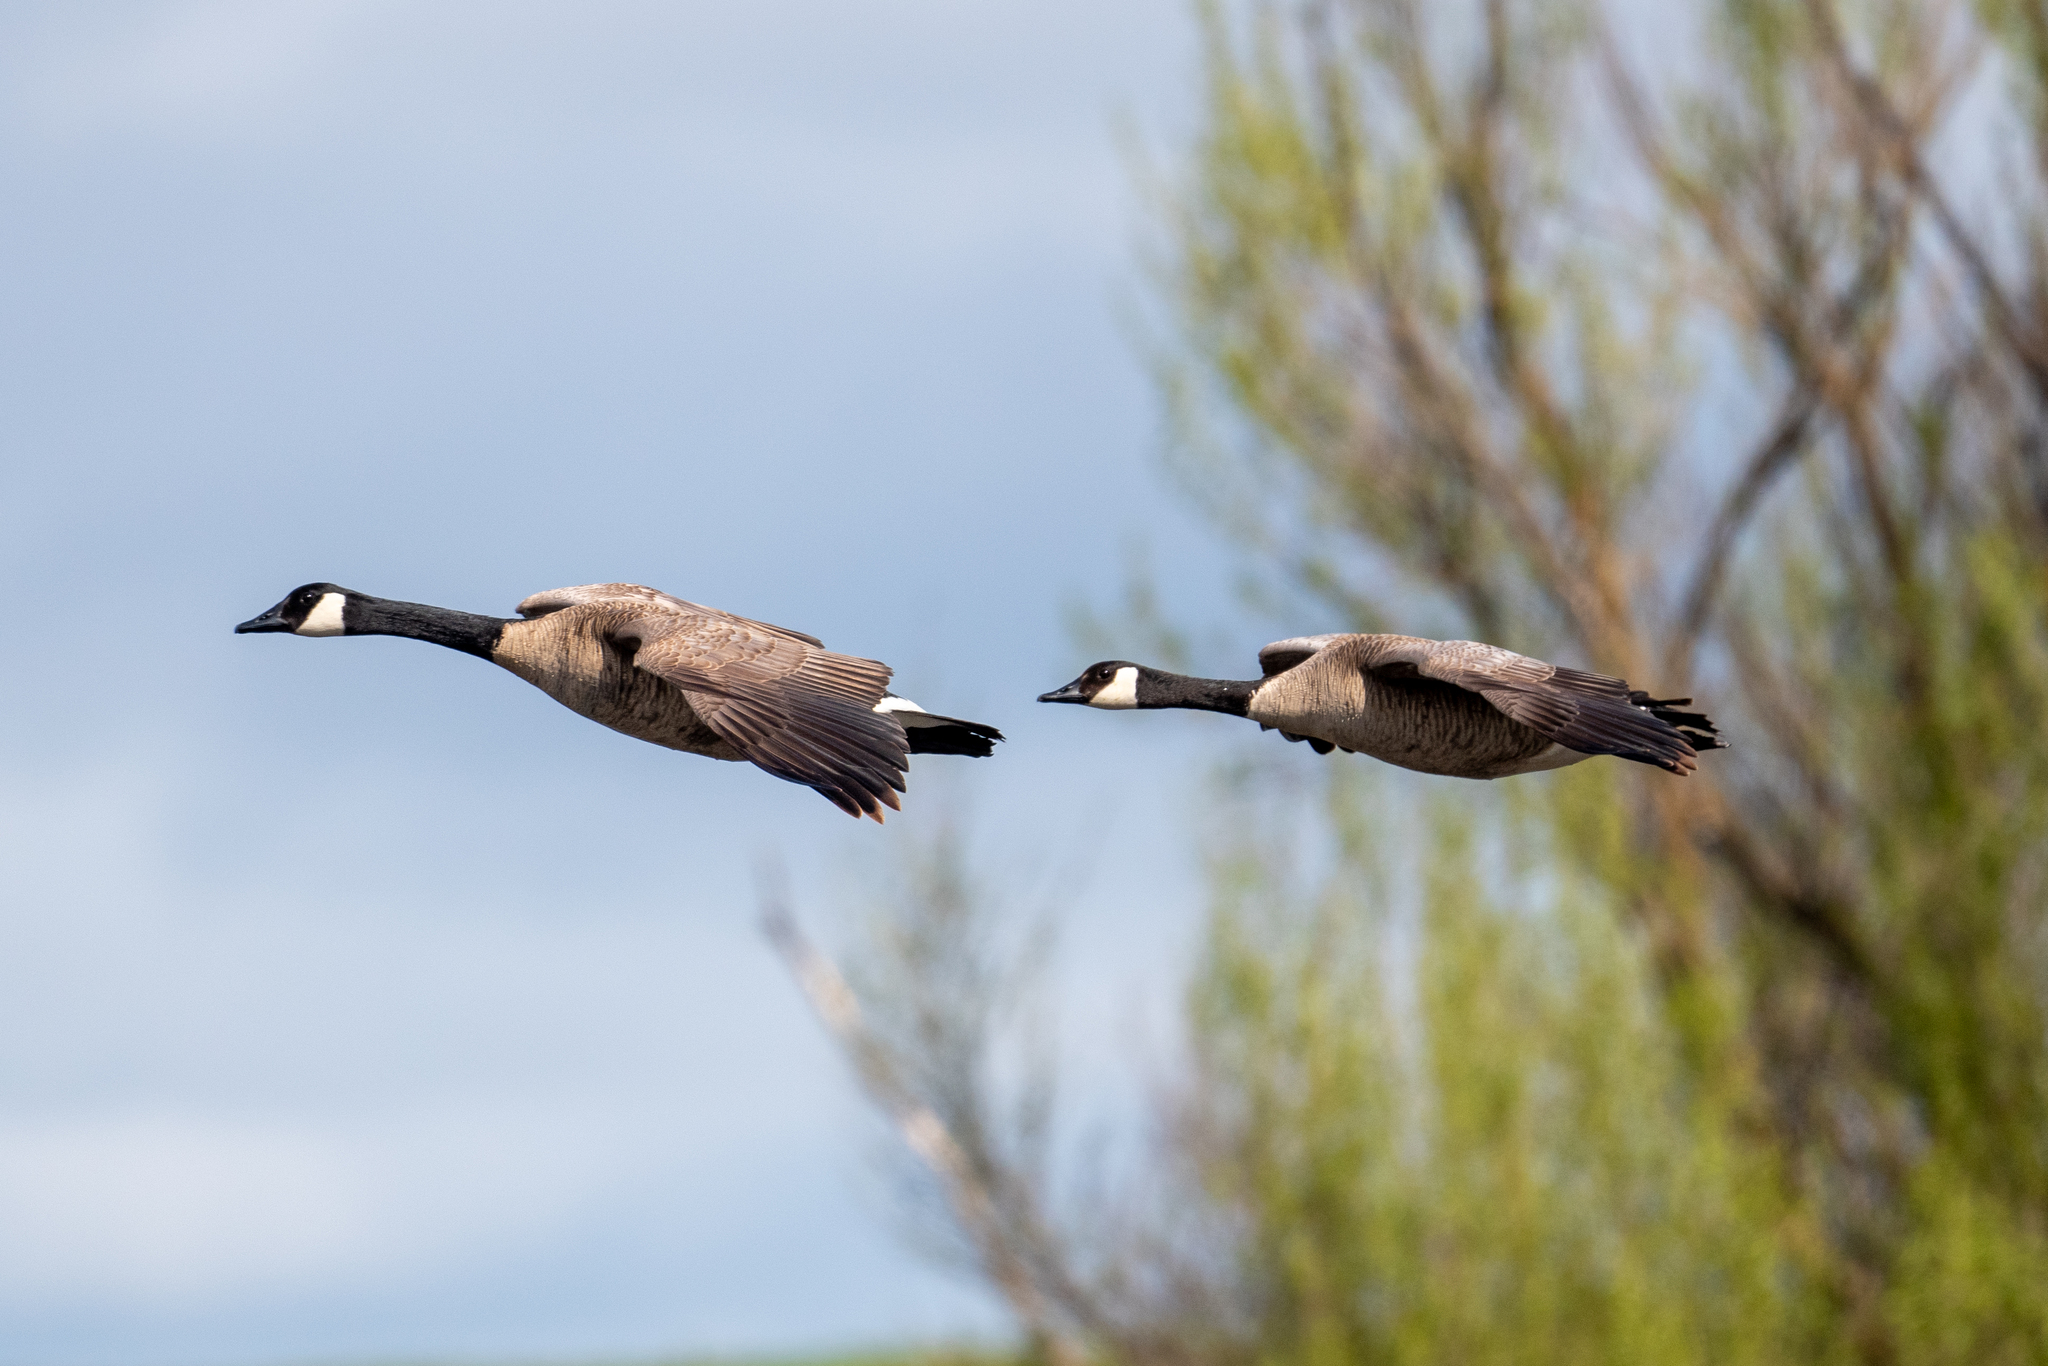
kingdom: Animalia
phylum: Chordata
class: Aves
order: Anseriformes
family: Anatidae
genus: Branta
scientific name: Branta canadensis
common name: Canada goose
